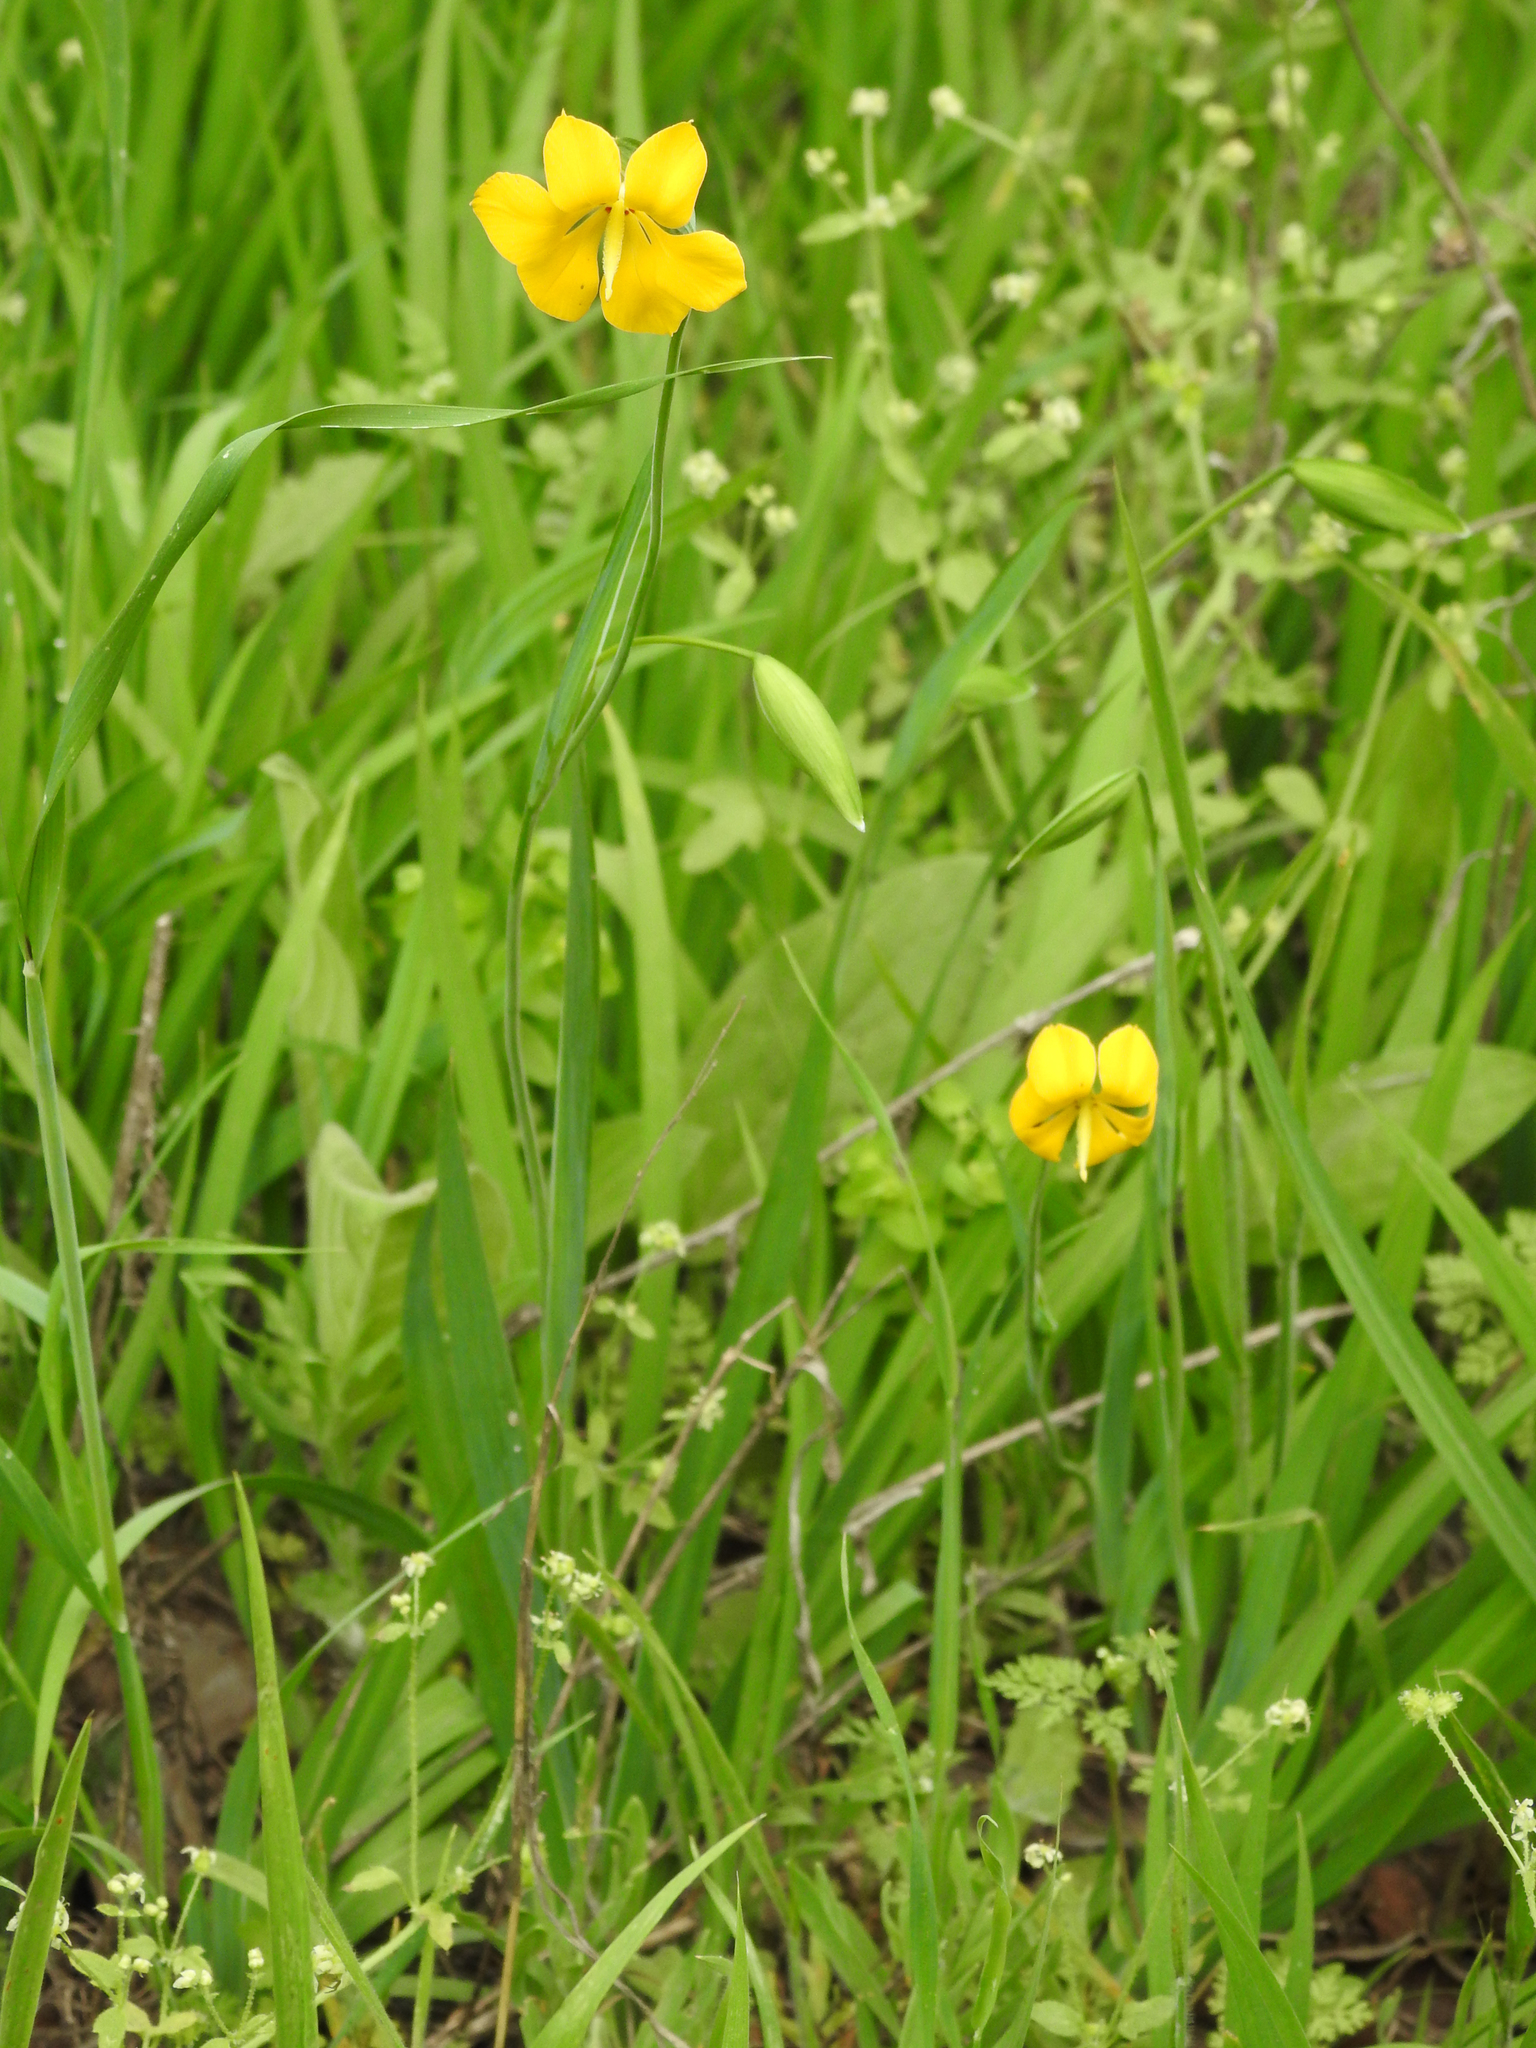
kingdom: Plantae
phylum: Tracheophyta
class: Liliopsida
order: Asparagales
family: Iridaceae
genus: Solenomelus
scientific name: Solenomelus pedunculatus
